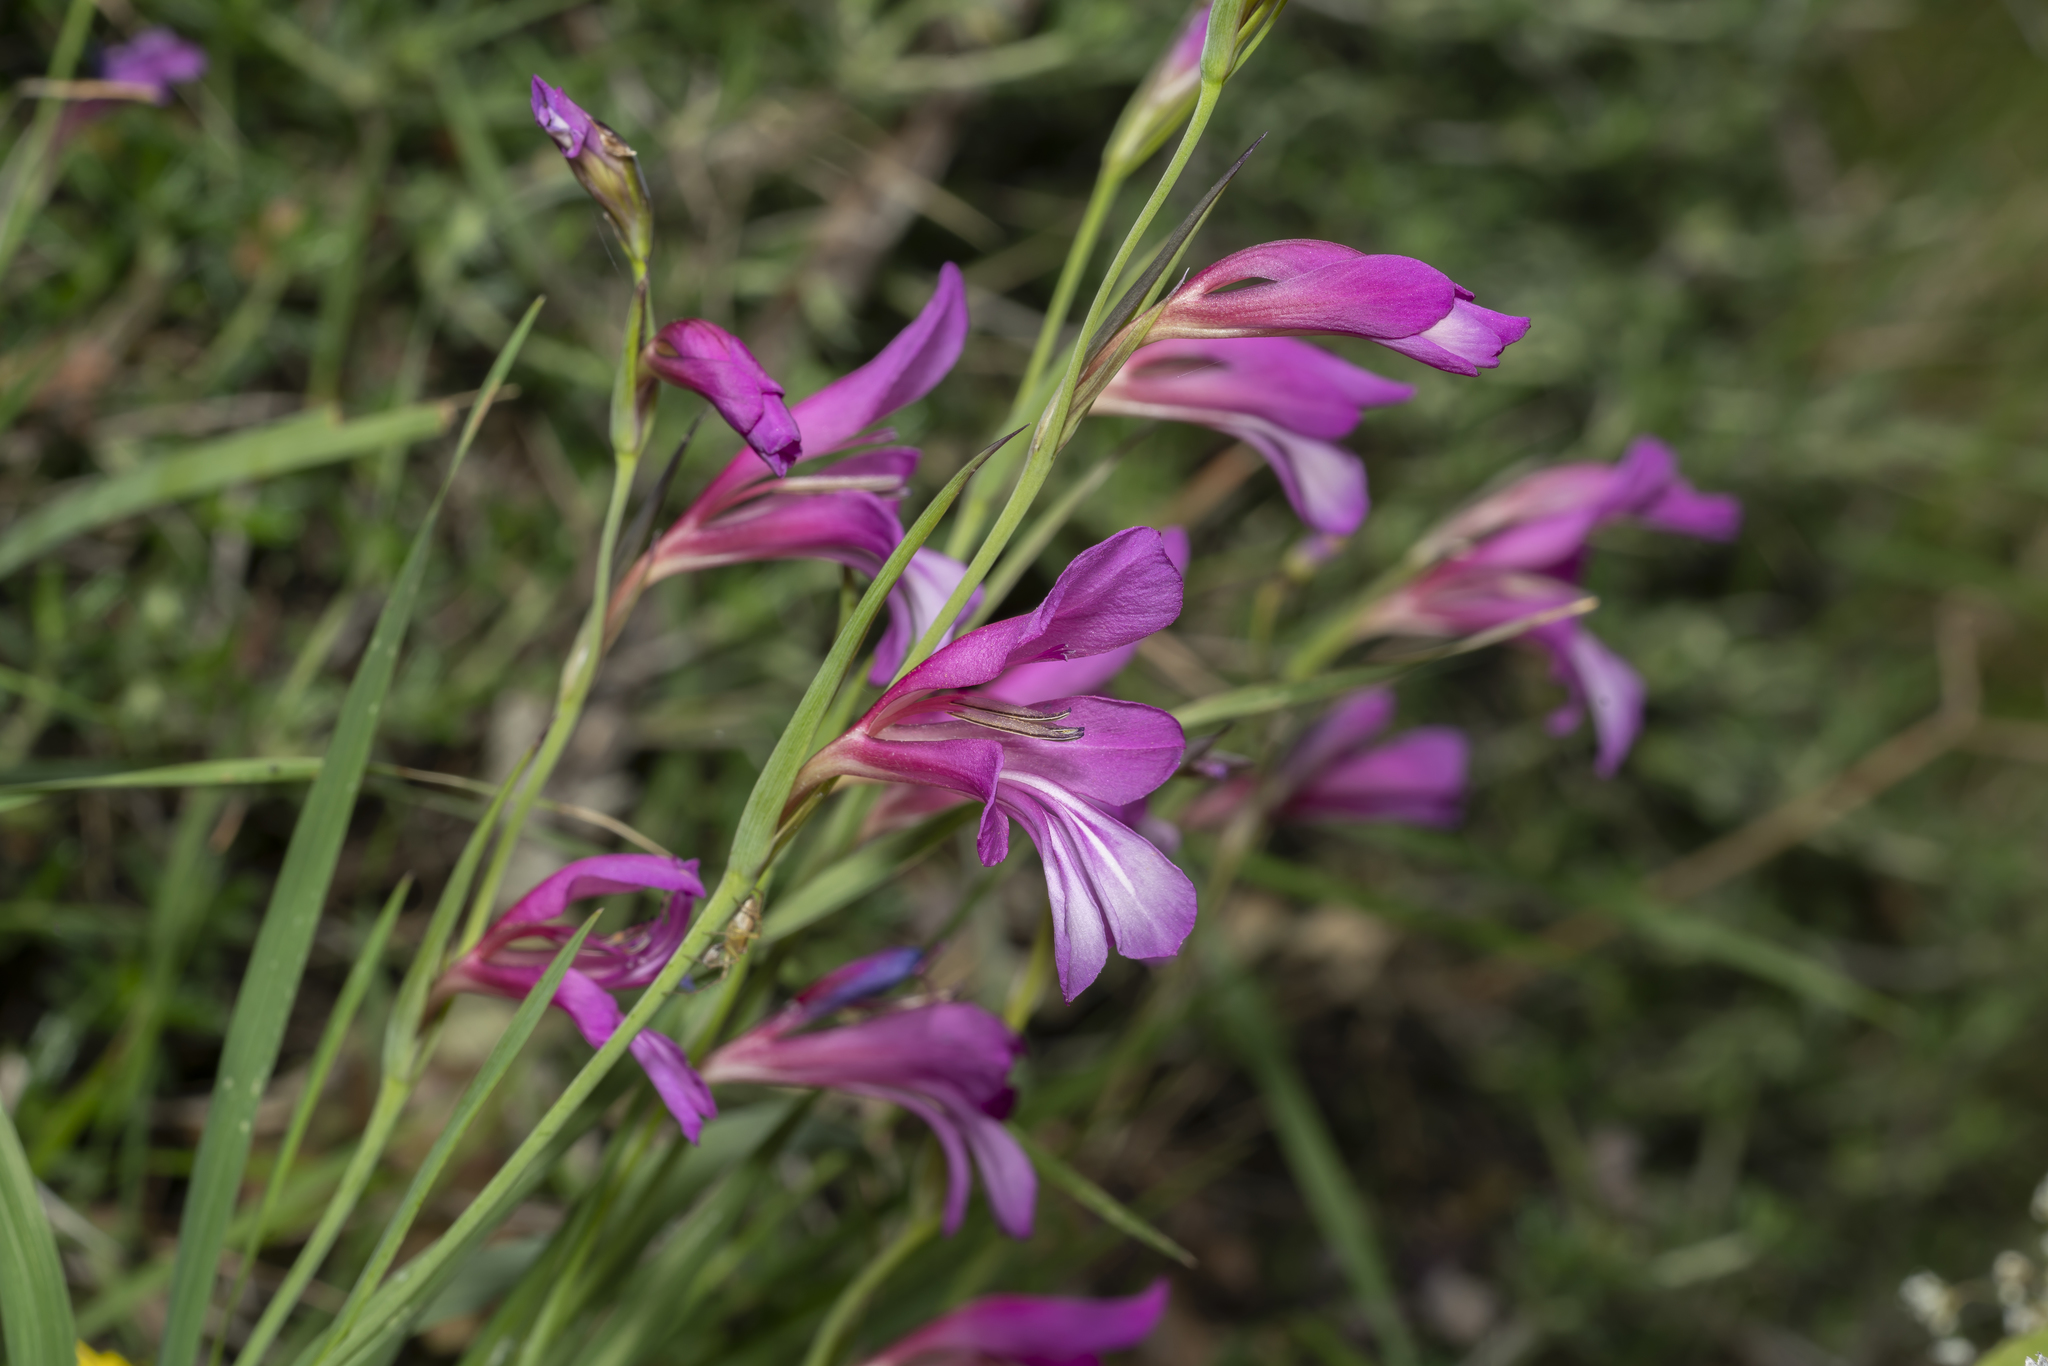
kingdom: Plantae
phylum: Tracheophyta
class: Liliopsida
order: Asparagales
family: Iridaceae
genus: Gladiolus
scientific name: Gladiolus italicus
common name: Field gladiolus
